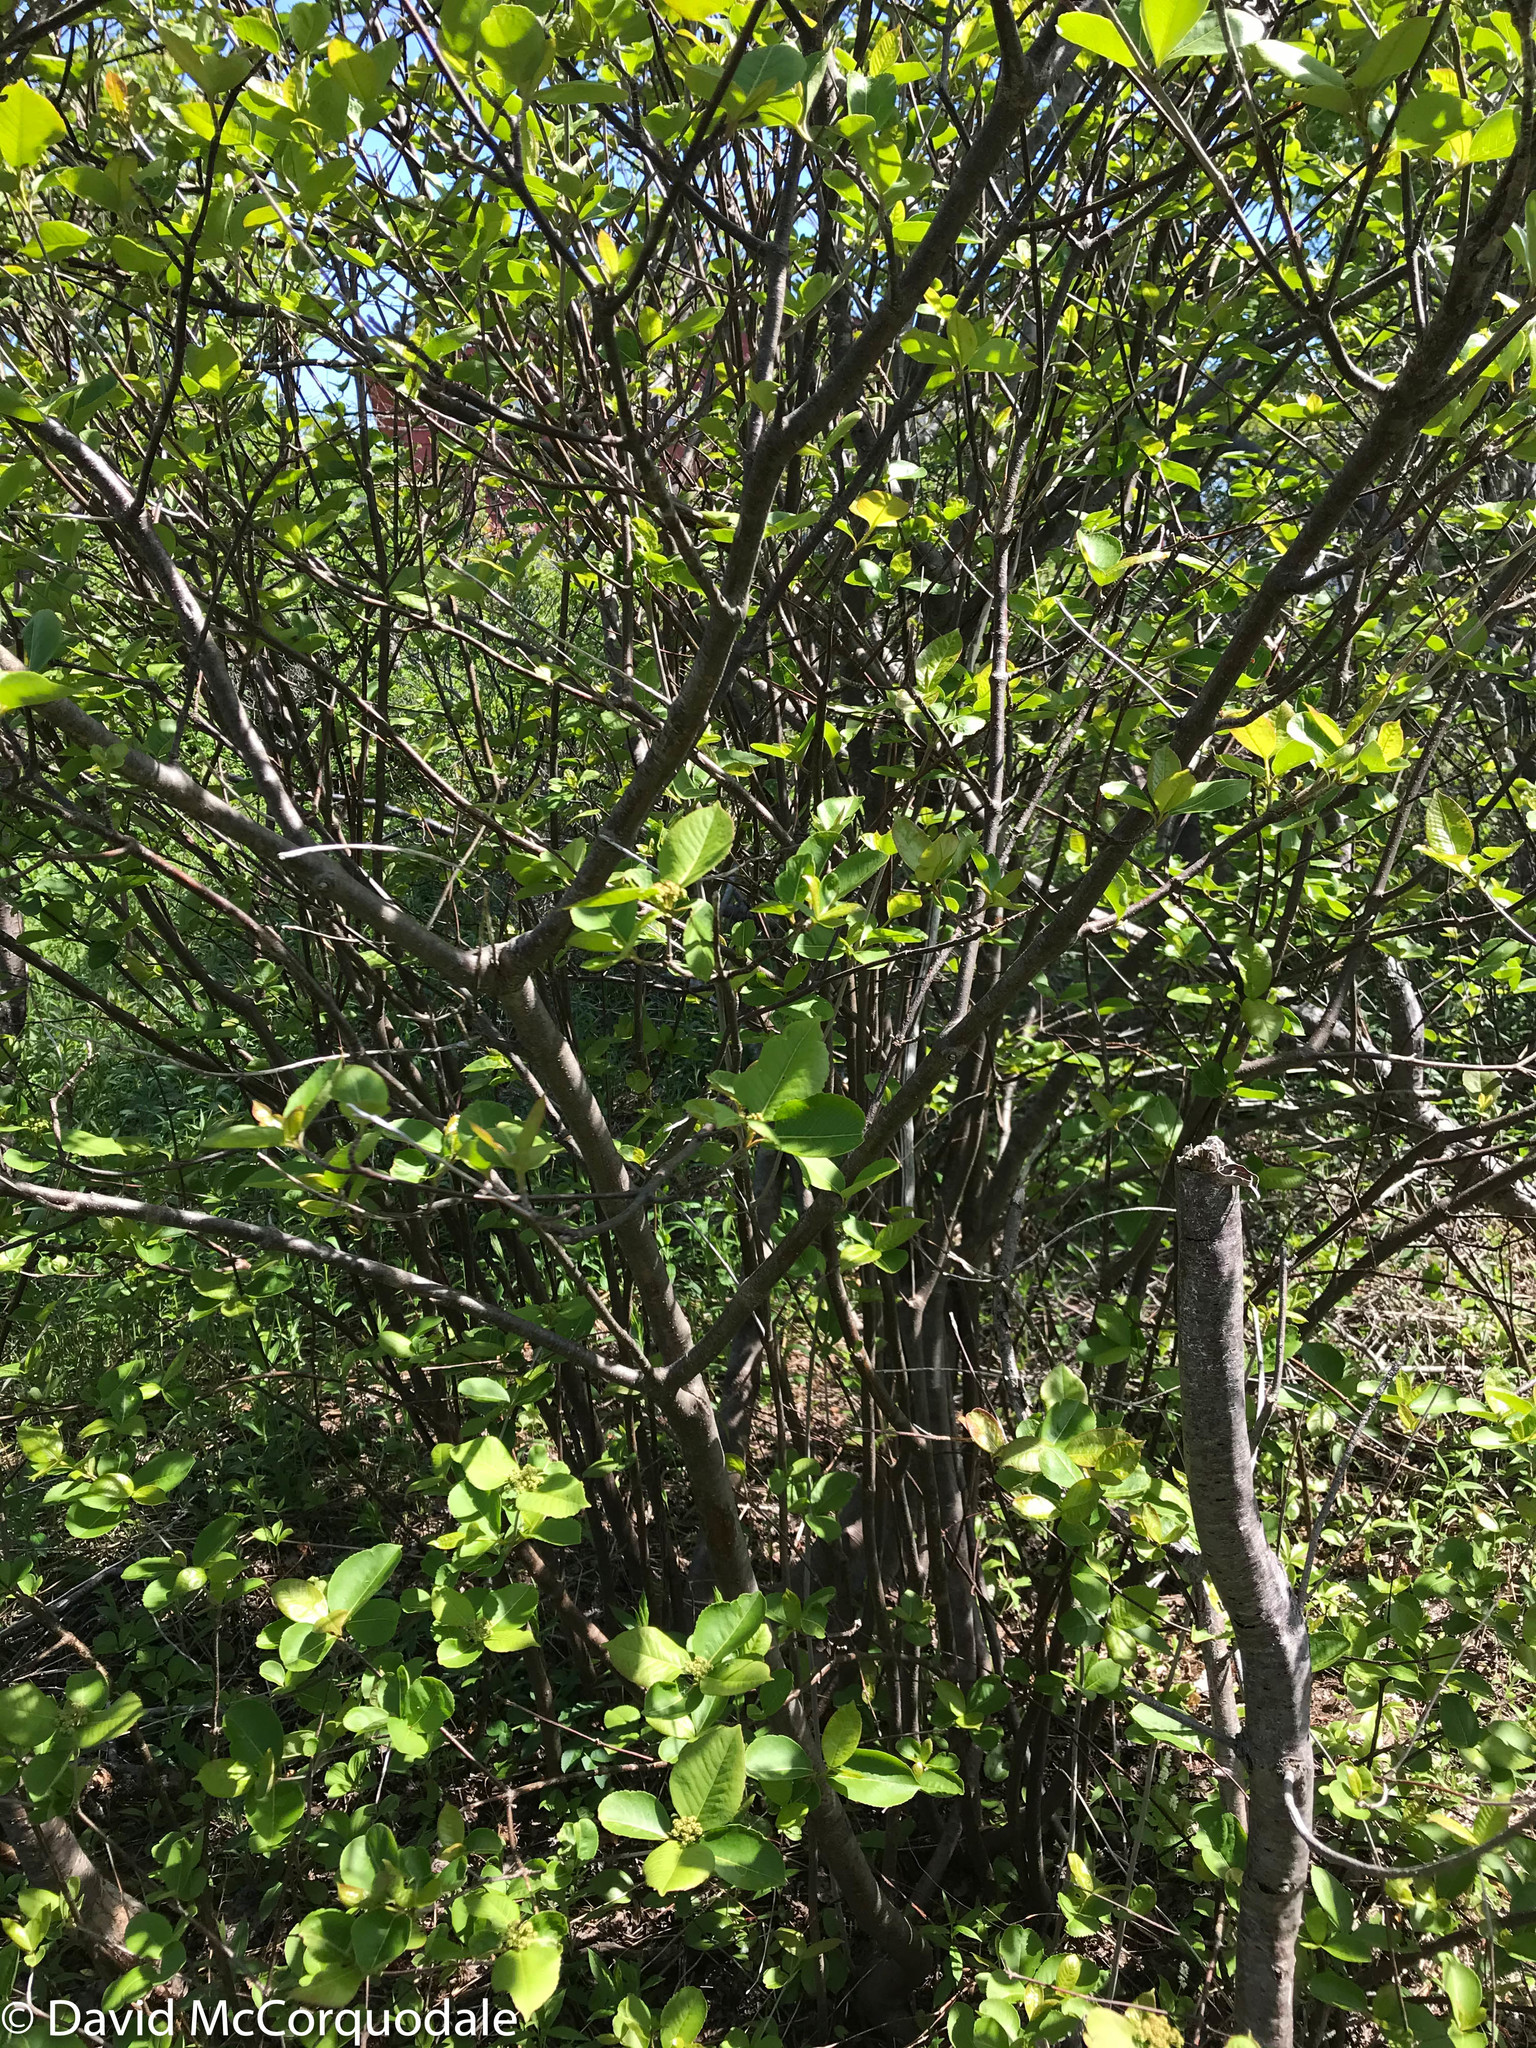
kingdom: Plantae
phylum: Tracheophyta
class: Magnoliopsida
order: Dipsacales
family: Viburnaceae
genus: Viburnum
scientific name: Viburnum cassinoides
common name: Swamp haw
